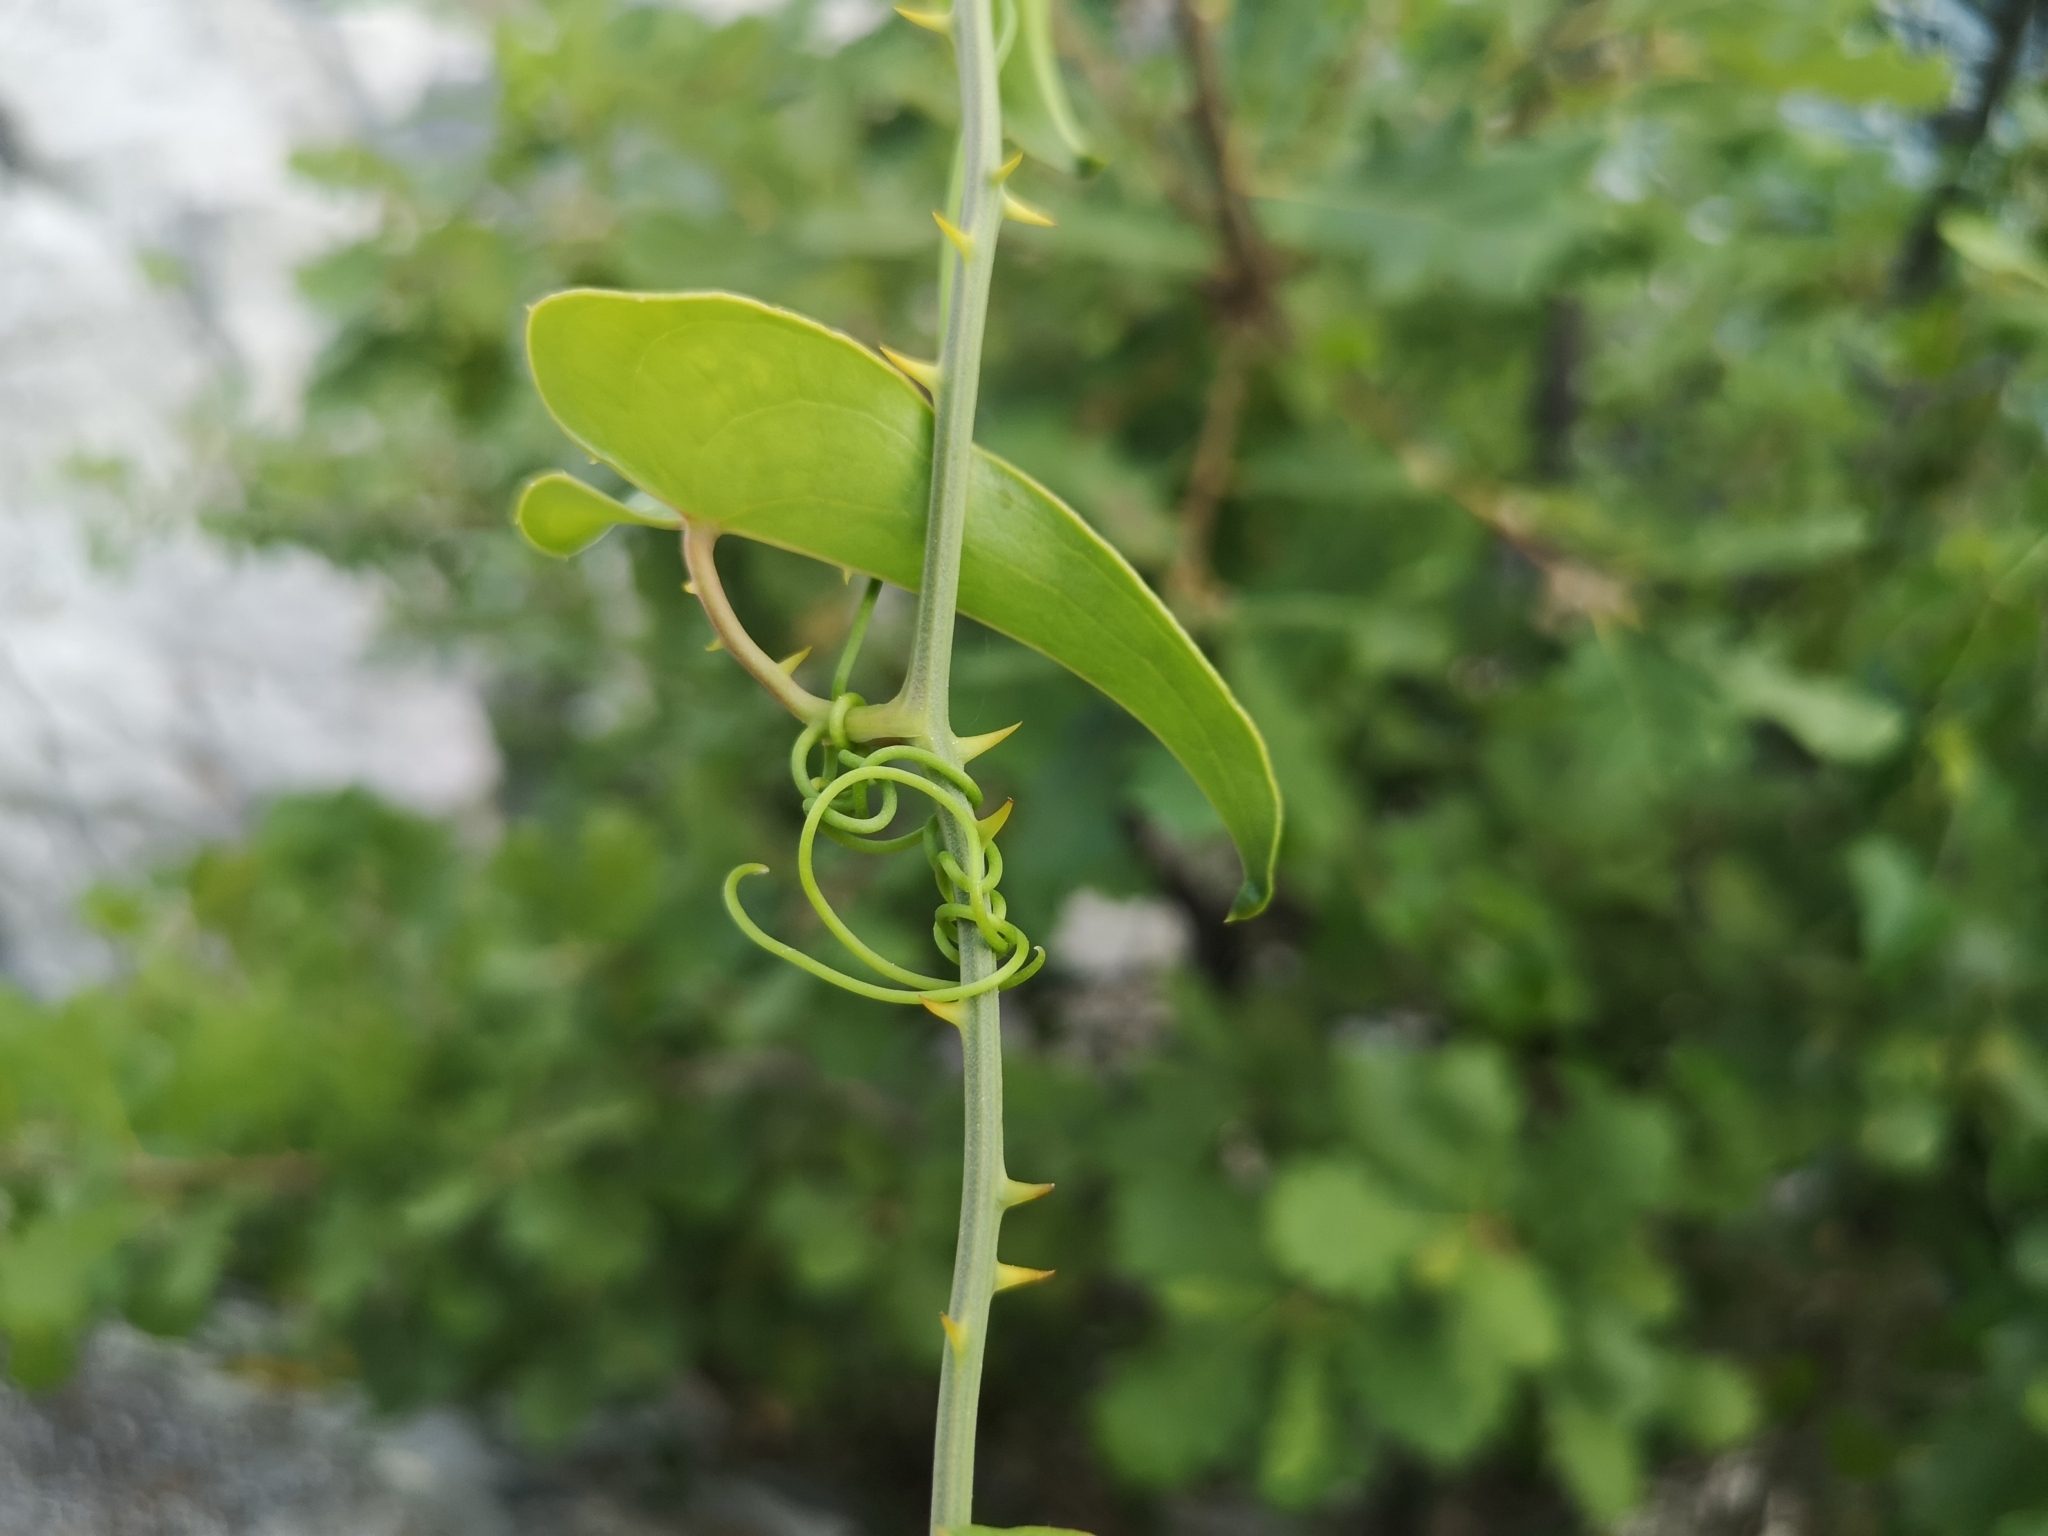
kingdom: Plantae
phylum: Tracheophyta
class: Liliopsida
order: Liliales
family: Smilacaceae
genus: Smilax
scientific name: Smilax aspera
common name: Common smilax
